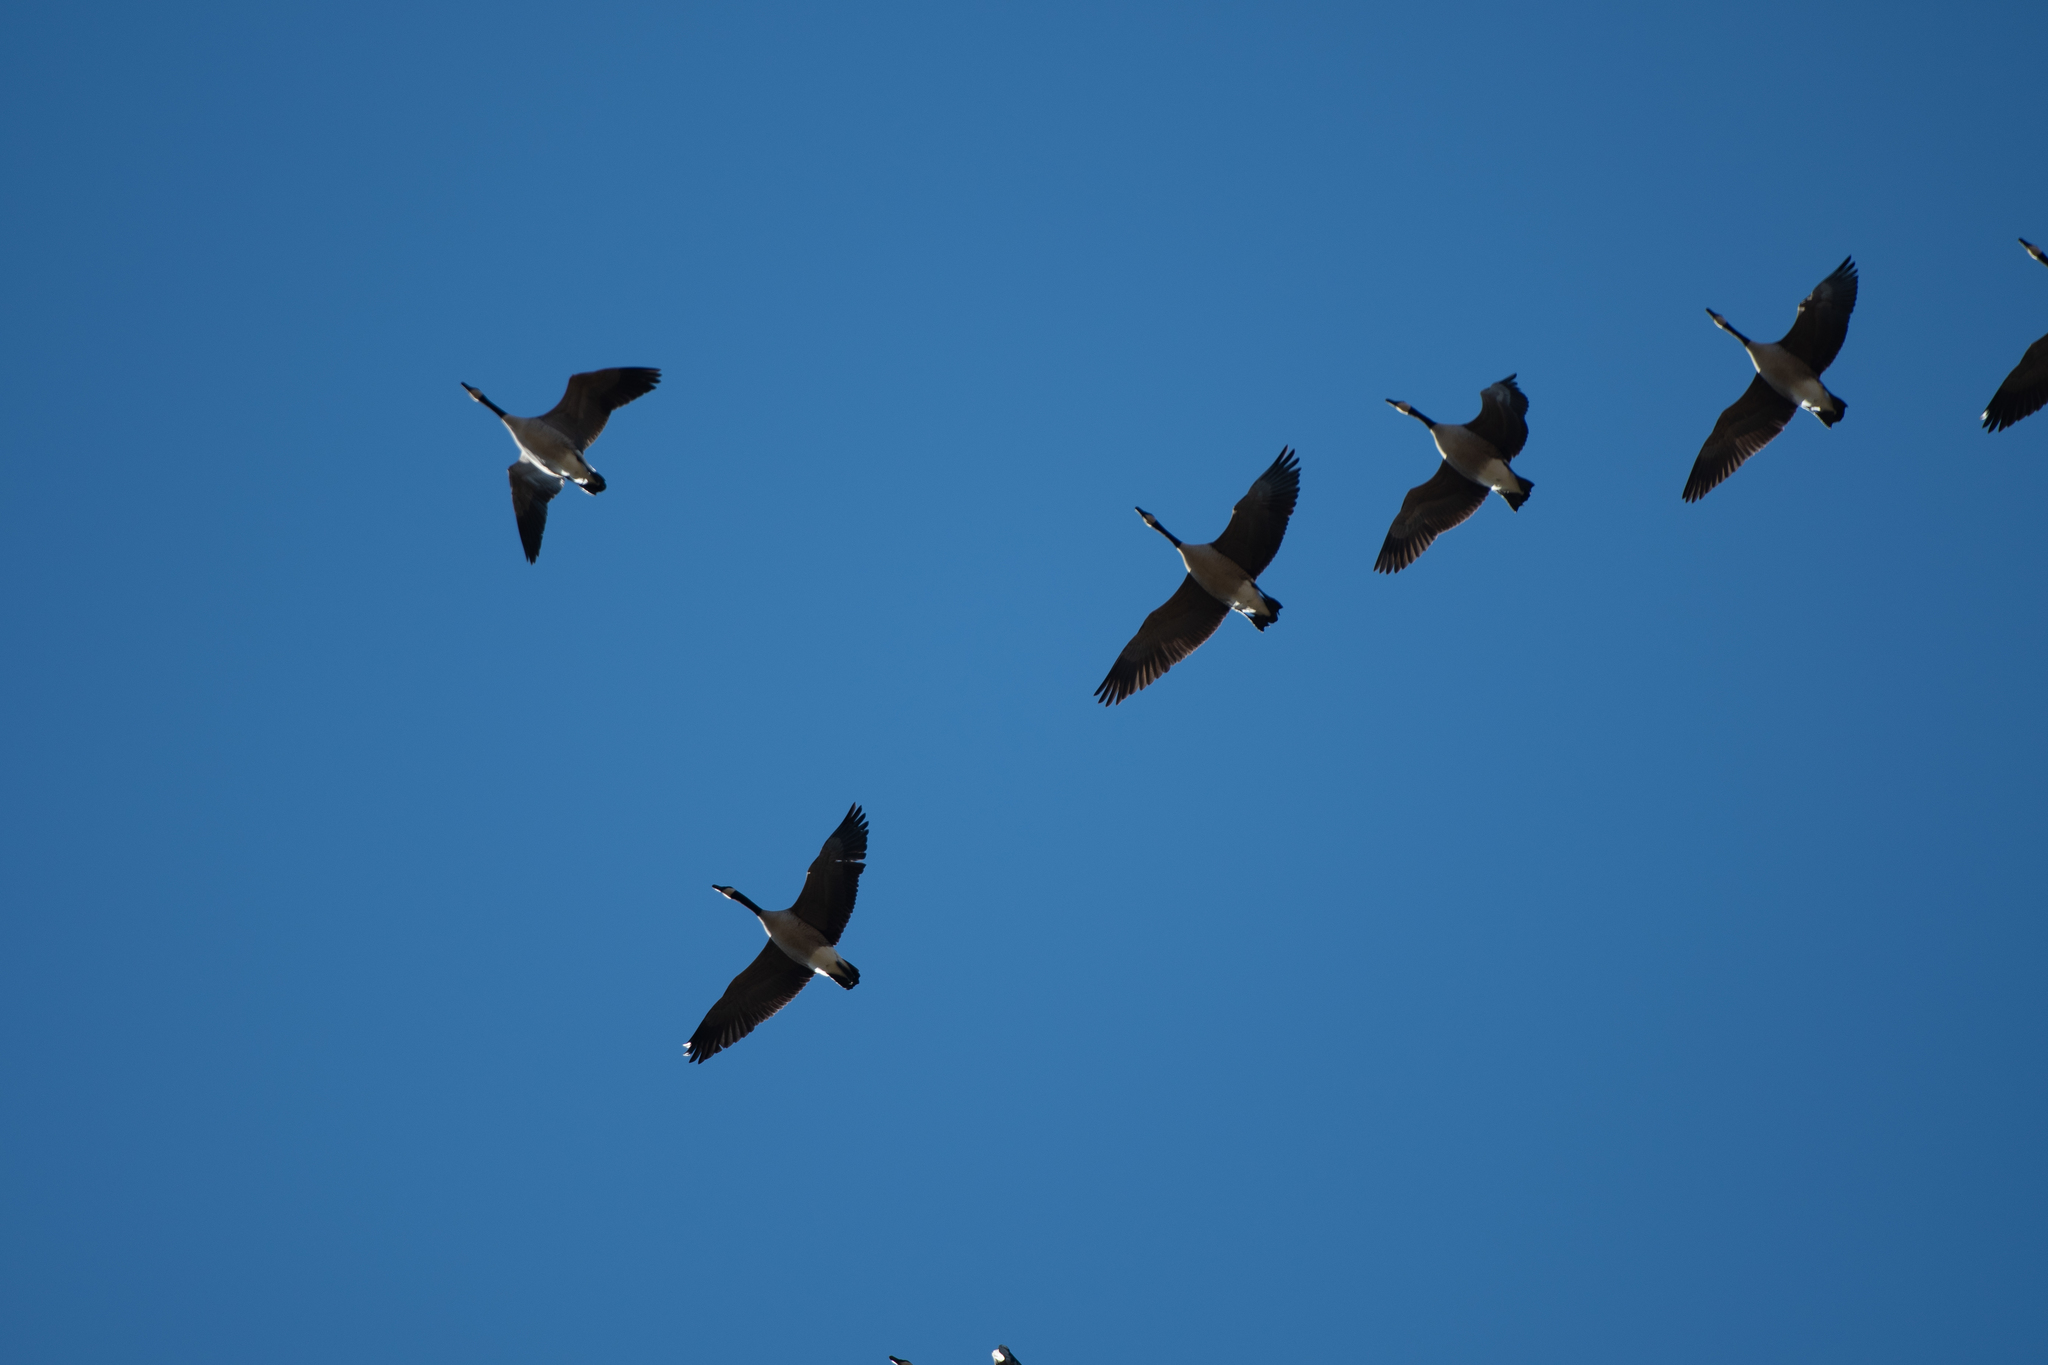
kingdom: Animalia
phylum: Chordata
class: Aves
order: Anseriformes
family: Anatidae
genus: Branta
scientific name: Branta canadensis
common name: Canada goose
